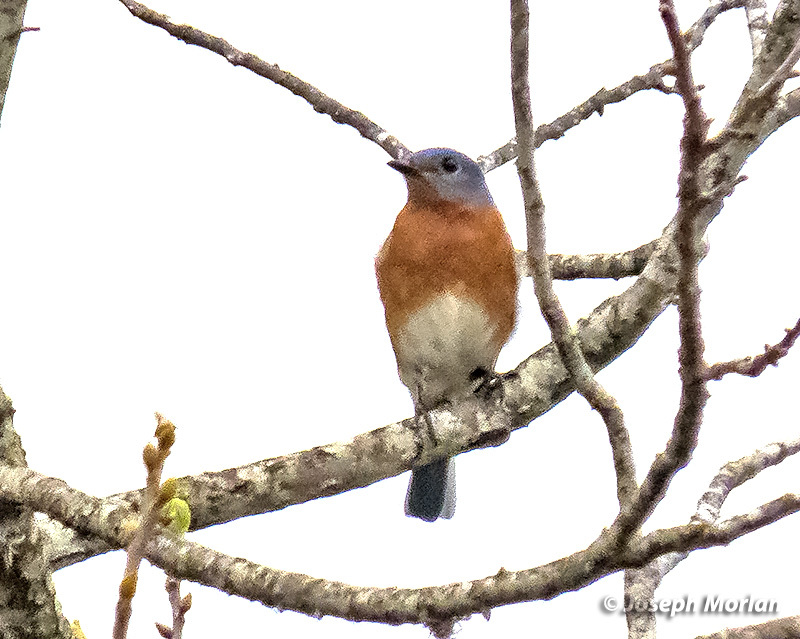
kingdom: Animalia
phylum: Chordata
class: Aves
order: Passeriformes
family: Turdidae
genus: Sialia
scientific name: Sialia sialis
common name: Eastern bluebird
